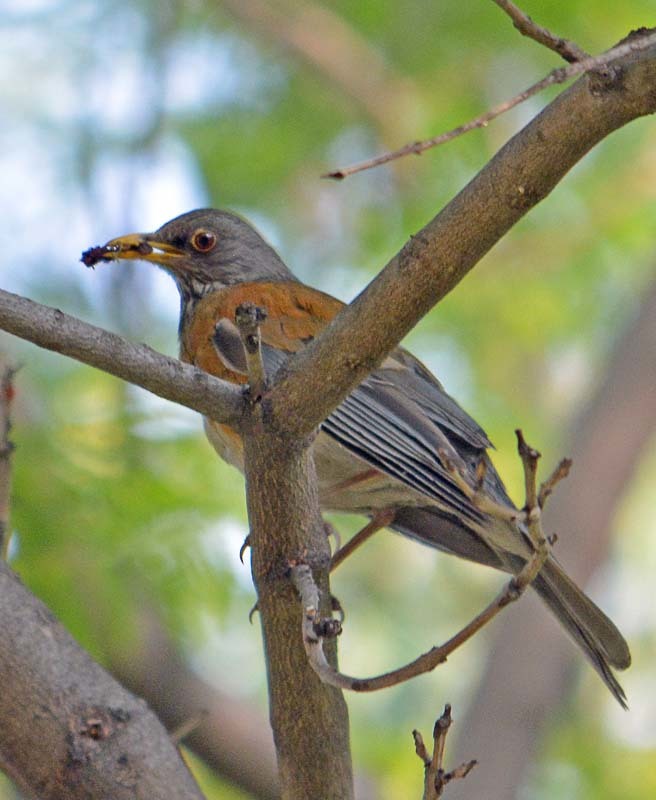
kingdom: Animalia
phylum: Chordata
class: Aves
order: Passeriformes
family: Turdidae
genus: Turdus
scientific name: Turdus rufopalliatus
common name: Rufous-backed robin
